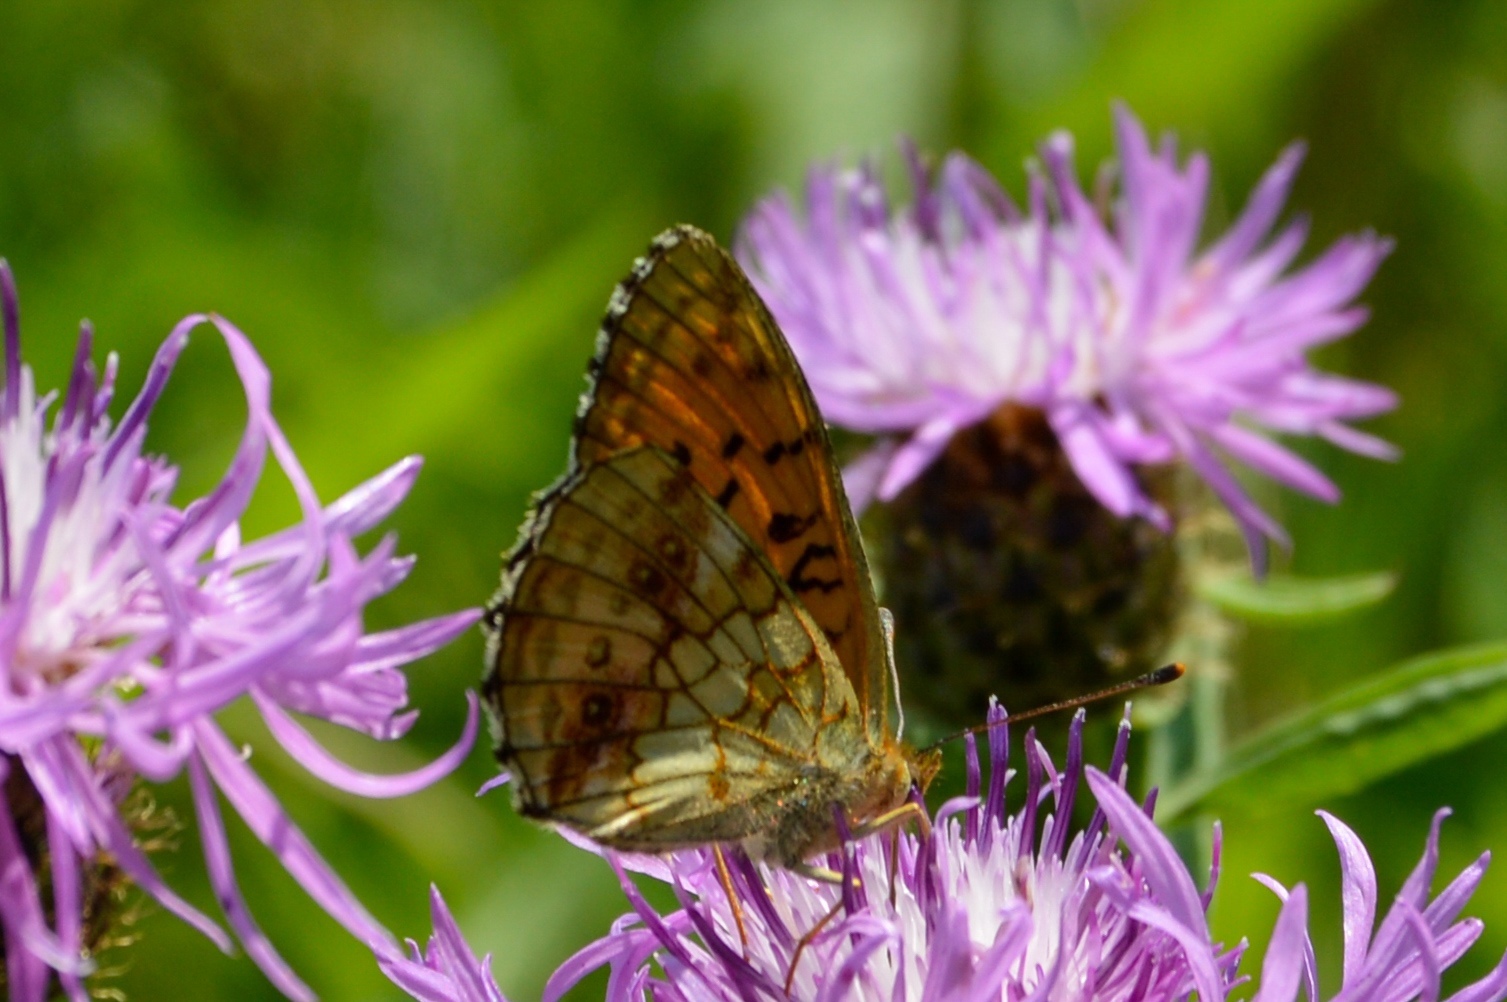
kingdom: Animalia
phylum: Arthropoda
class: Insecta
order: Lepidoptera
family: Nymphalidae
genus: Brenthis
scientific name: Brenthis ino
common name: Lesser marbled fritillary
